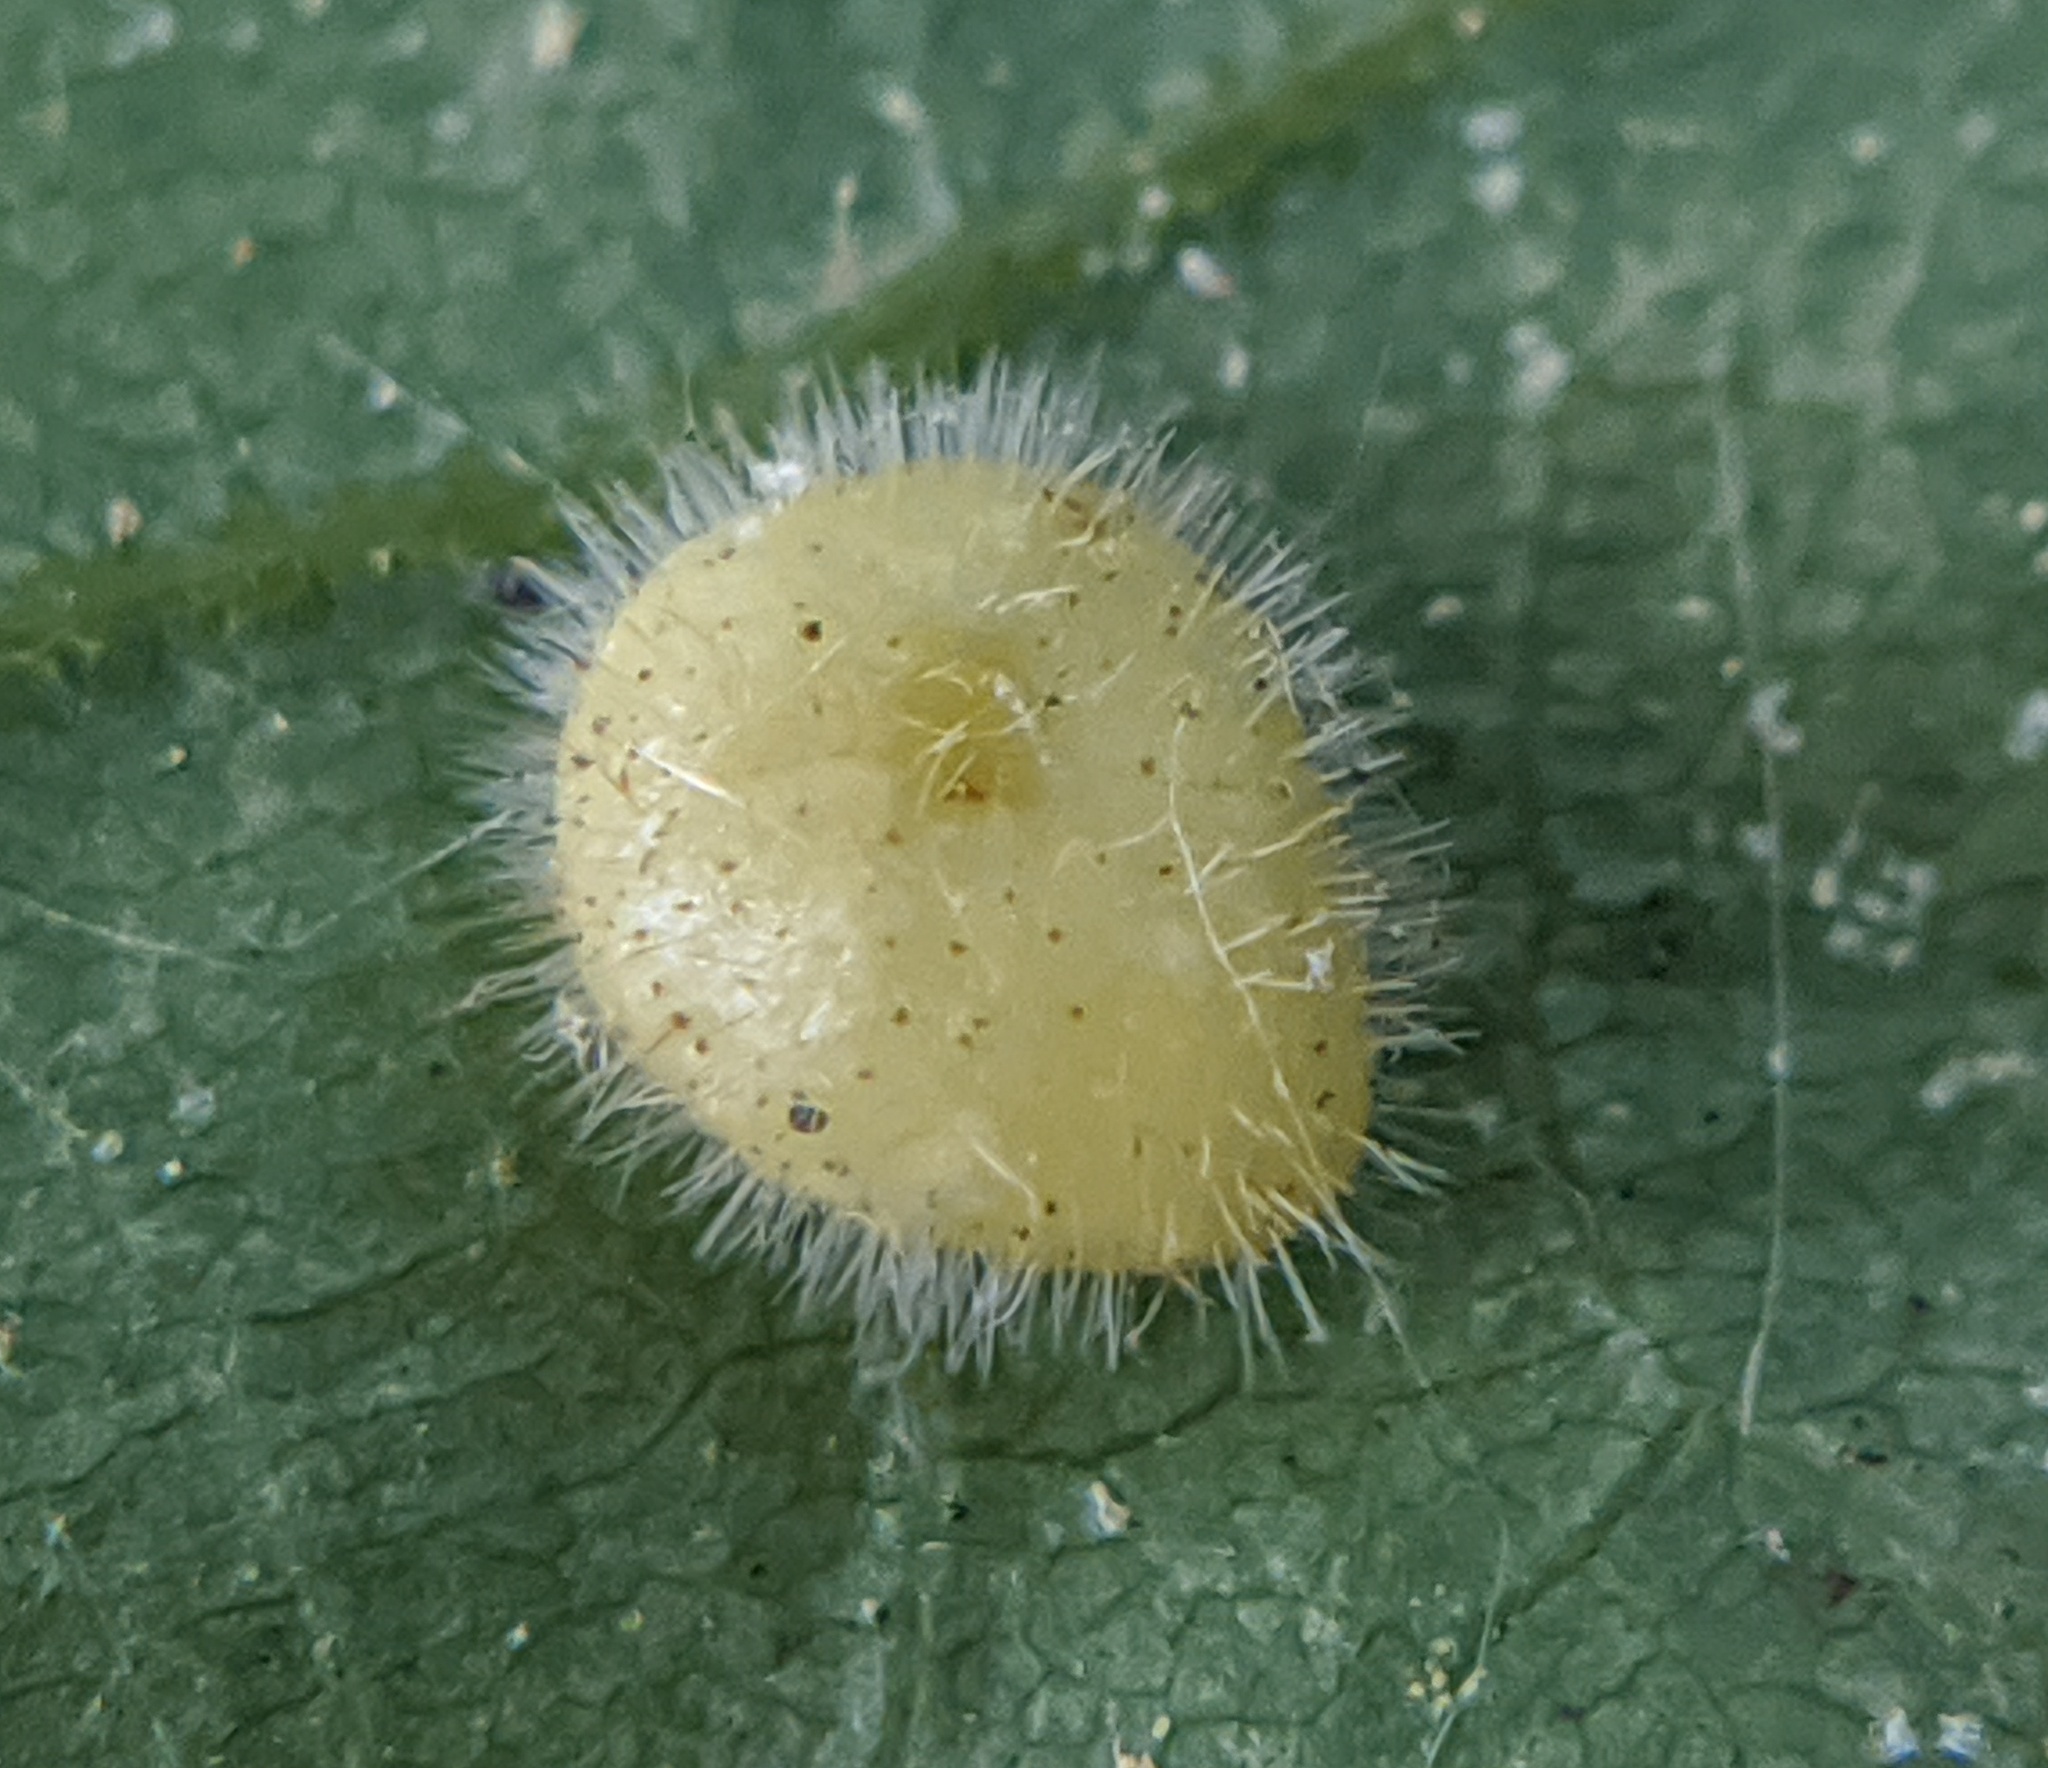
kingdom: Animalia
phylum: Arthropoda
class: Insecta
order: Diptera
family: Cecidomyiidae
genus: Caryomyia
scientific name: Caryomyia thompsoni
